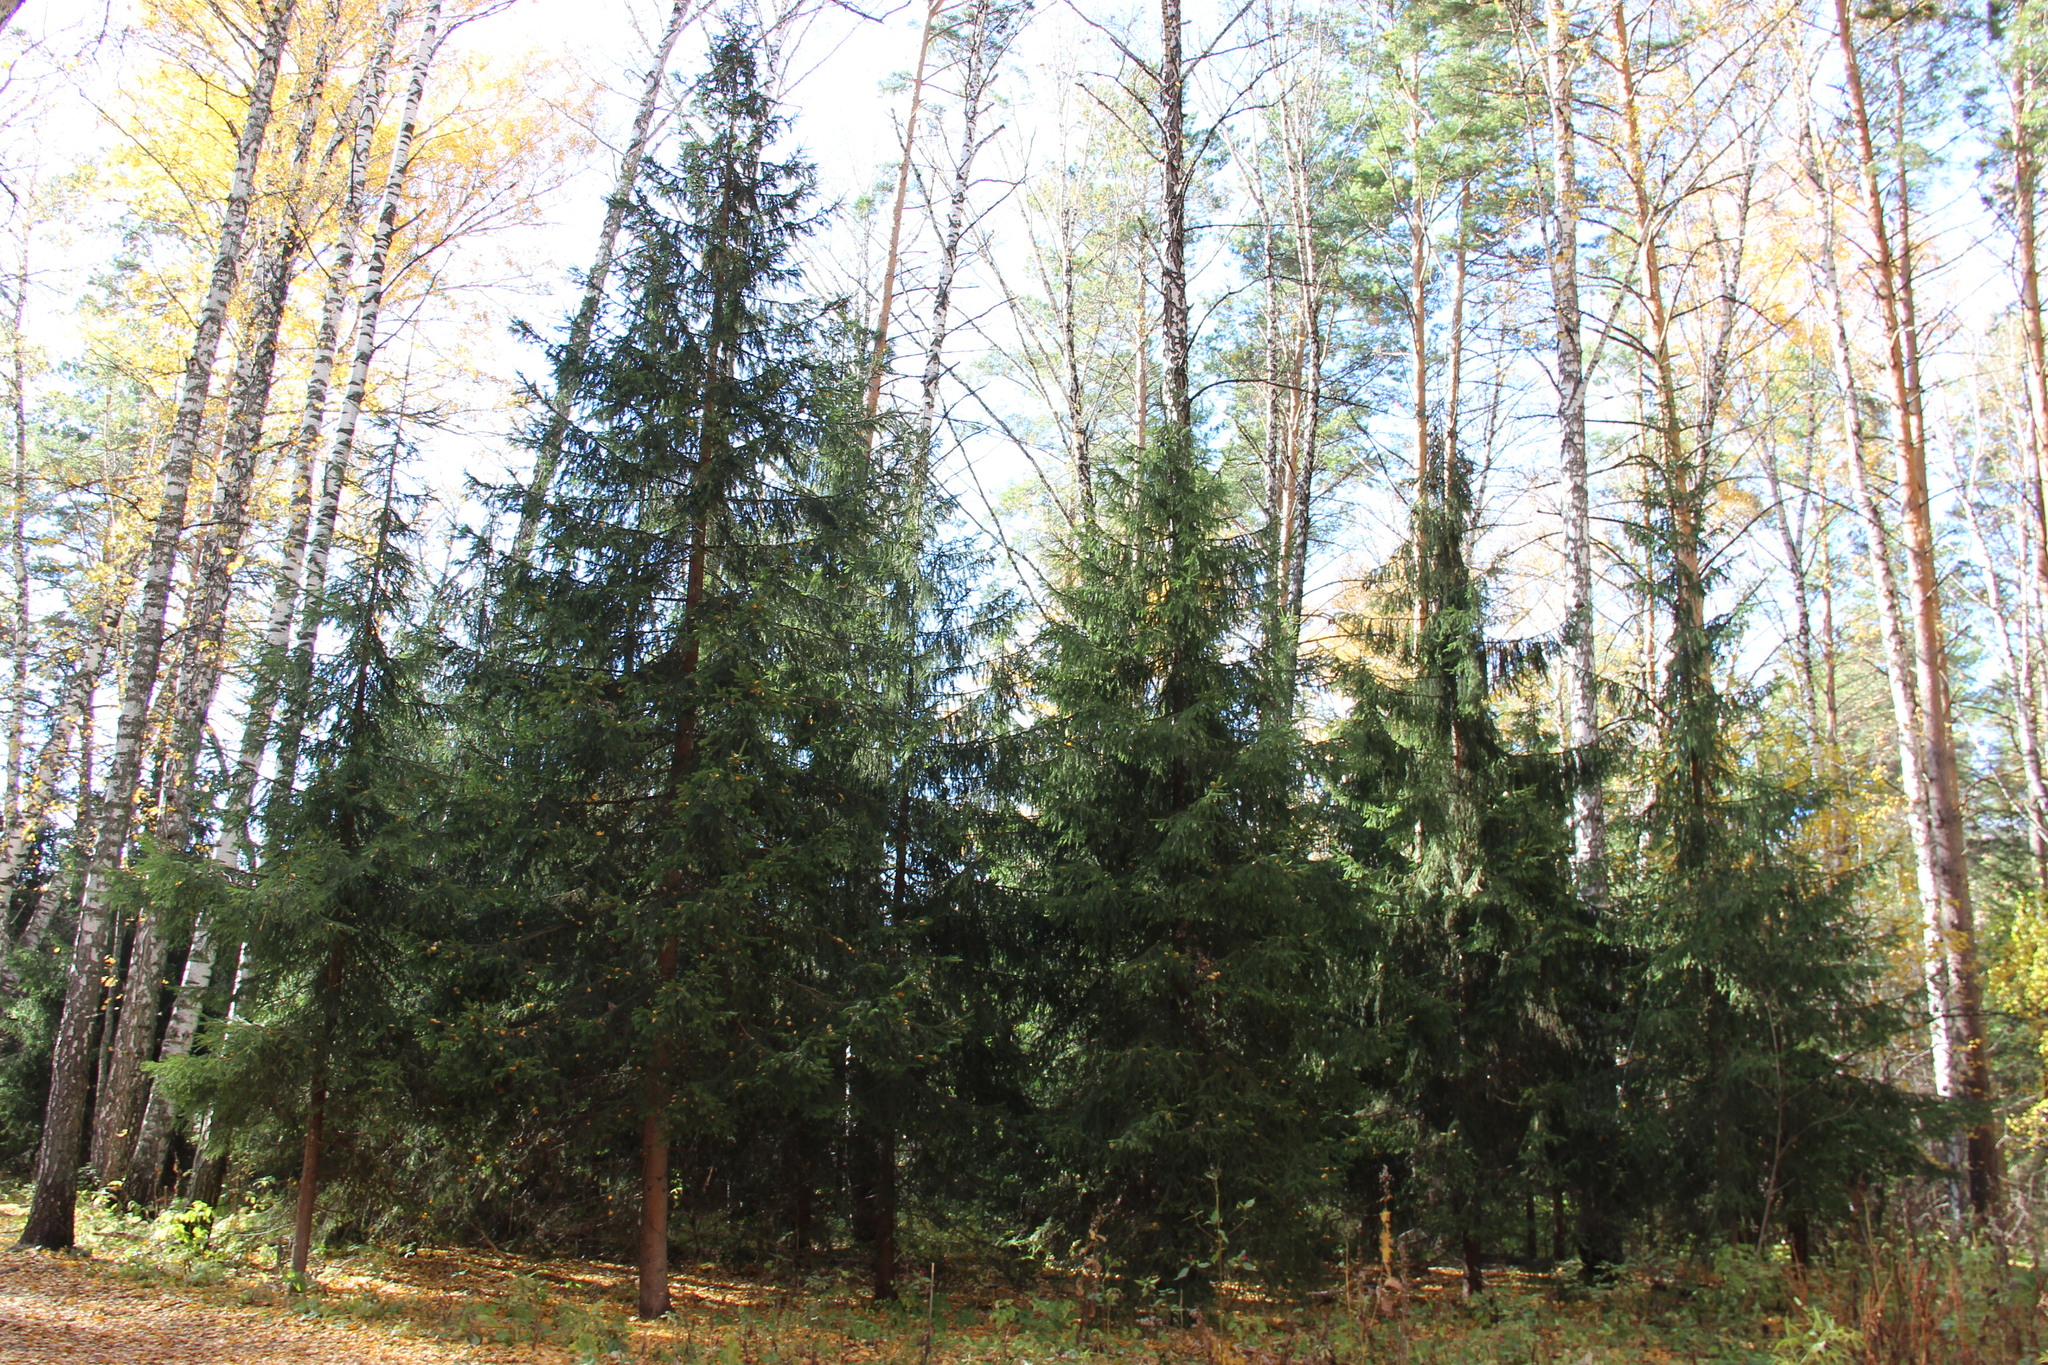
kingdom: Plantae
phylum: Tracheophyta
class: Pinopsida
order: Pinales
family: Pinaceae
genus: Picea
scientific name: Picea obovata
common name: Siberian spruce
